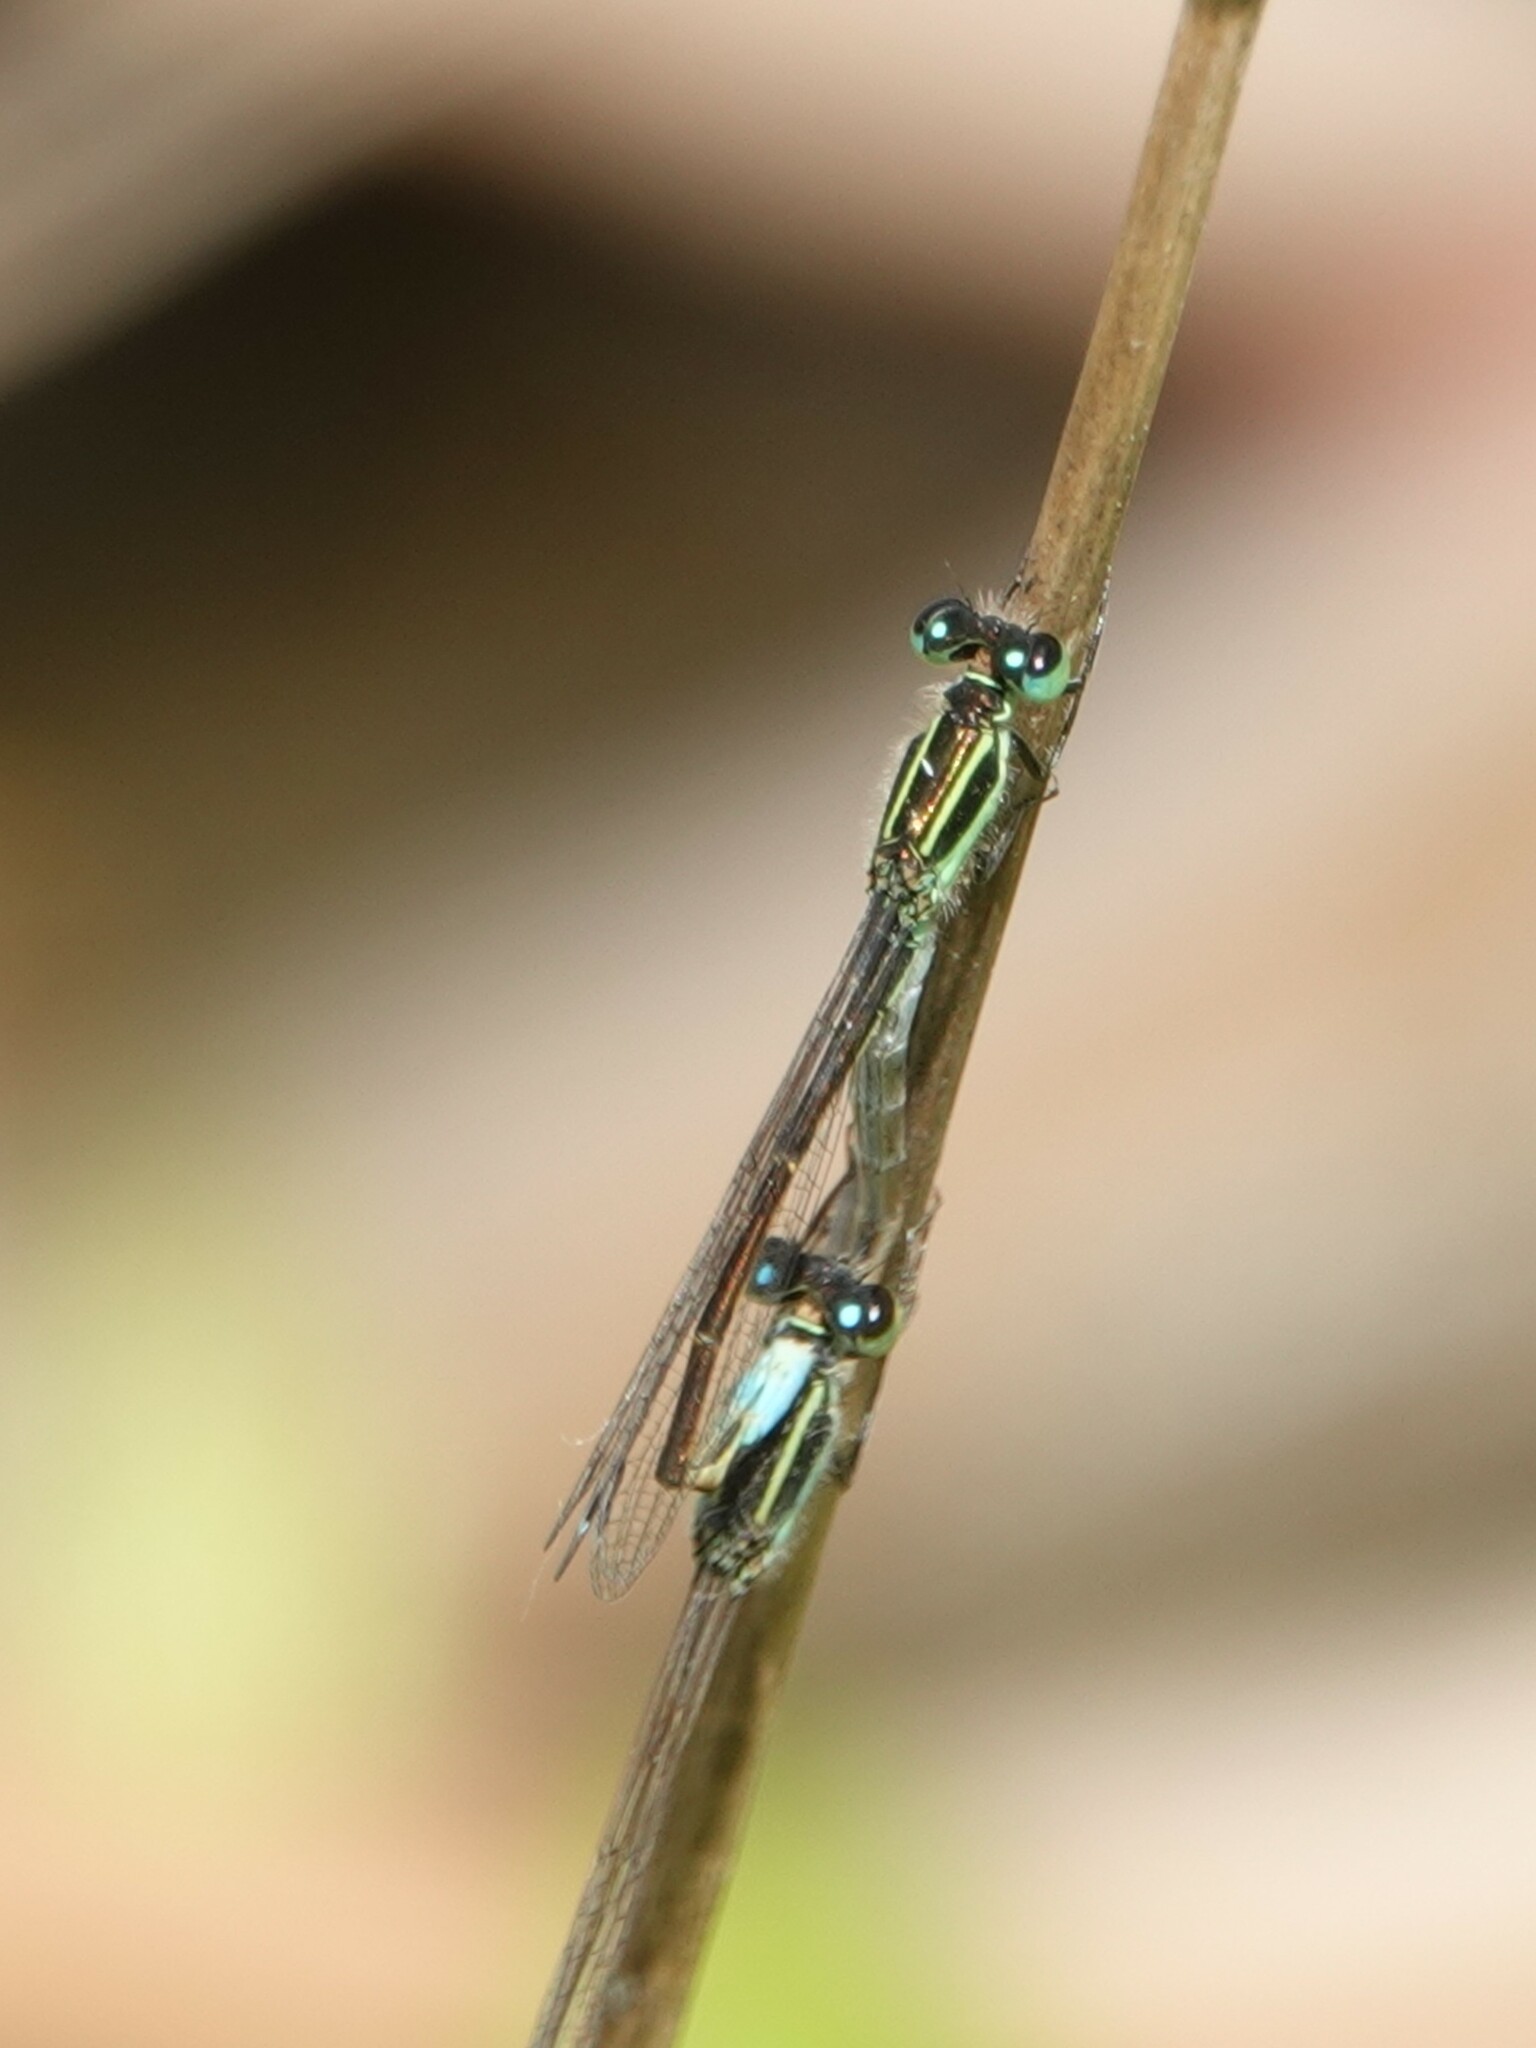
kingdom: Animalia
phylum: Arthropoda
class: Insecta
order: Odonata
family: Coenagrionidae
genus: Ischnura
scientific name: Ischnura ramburii
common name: Rambur's forktail
